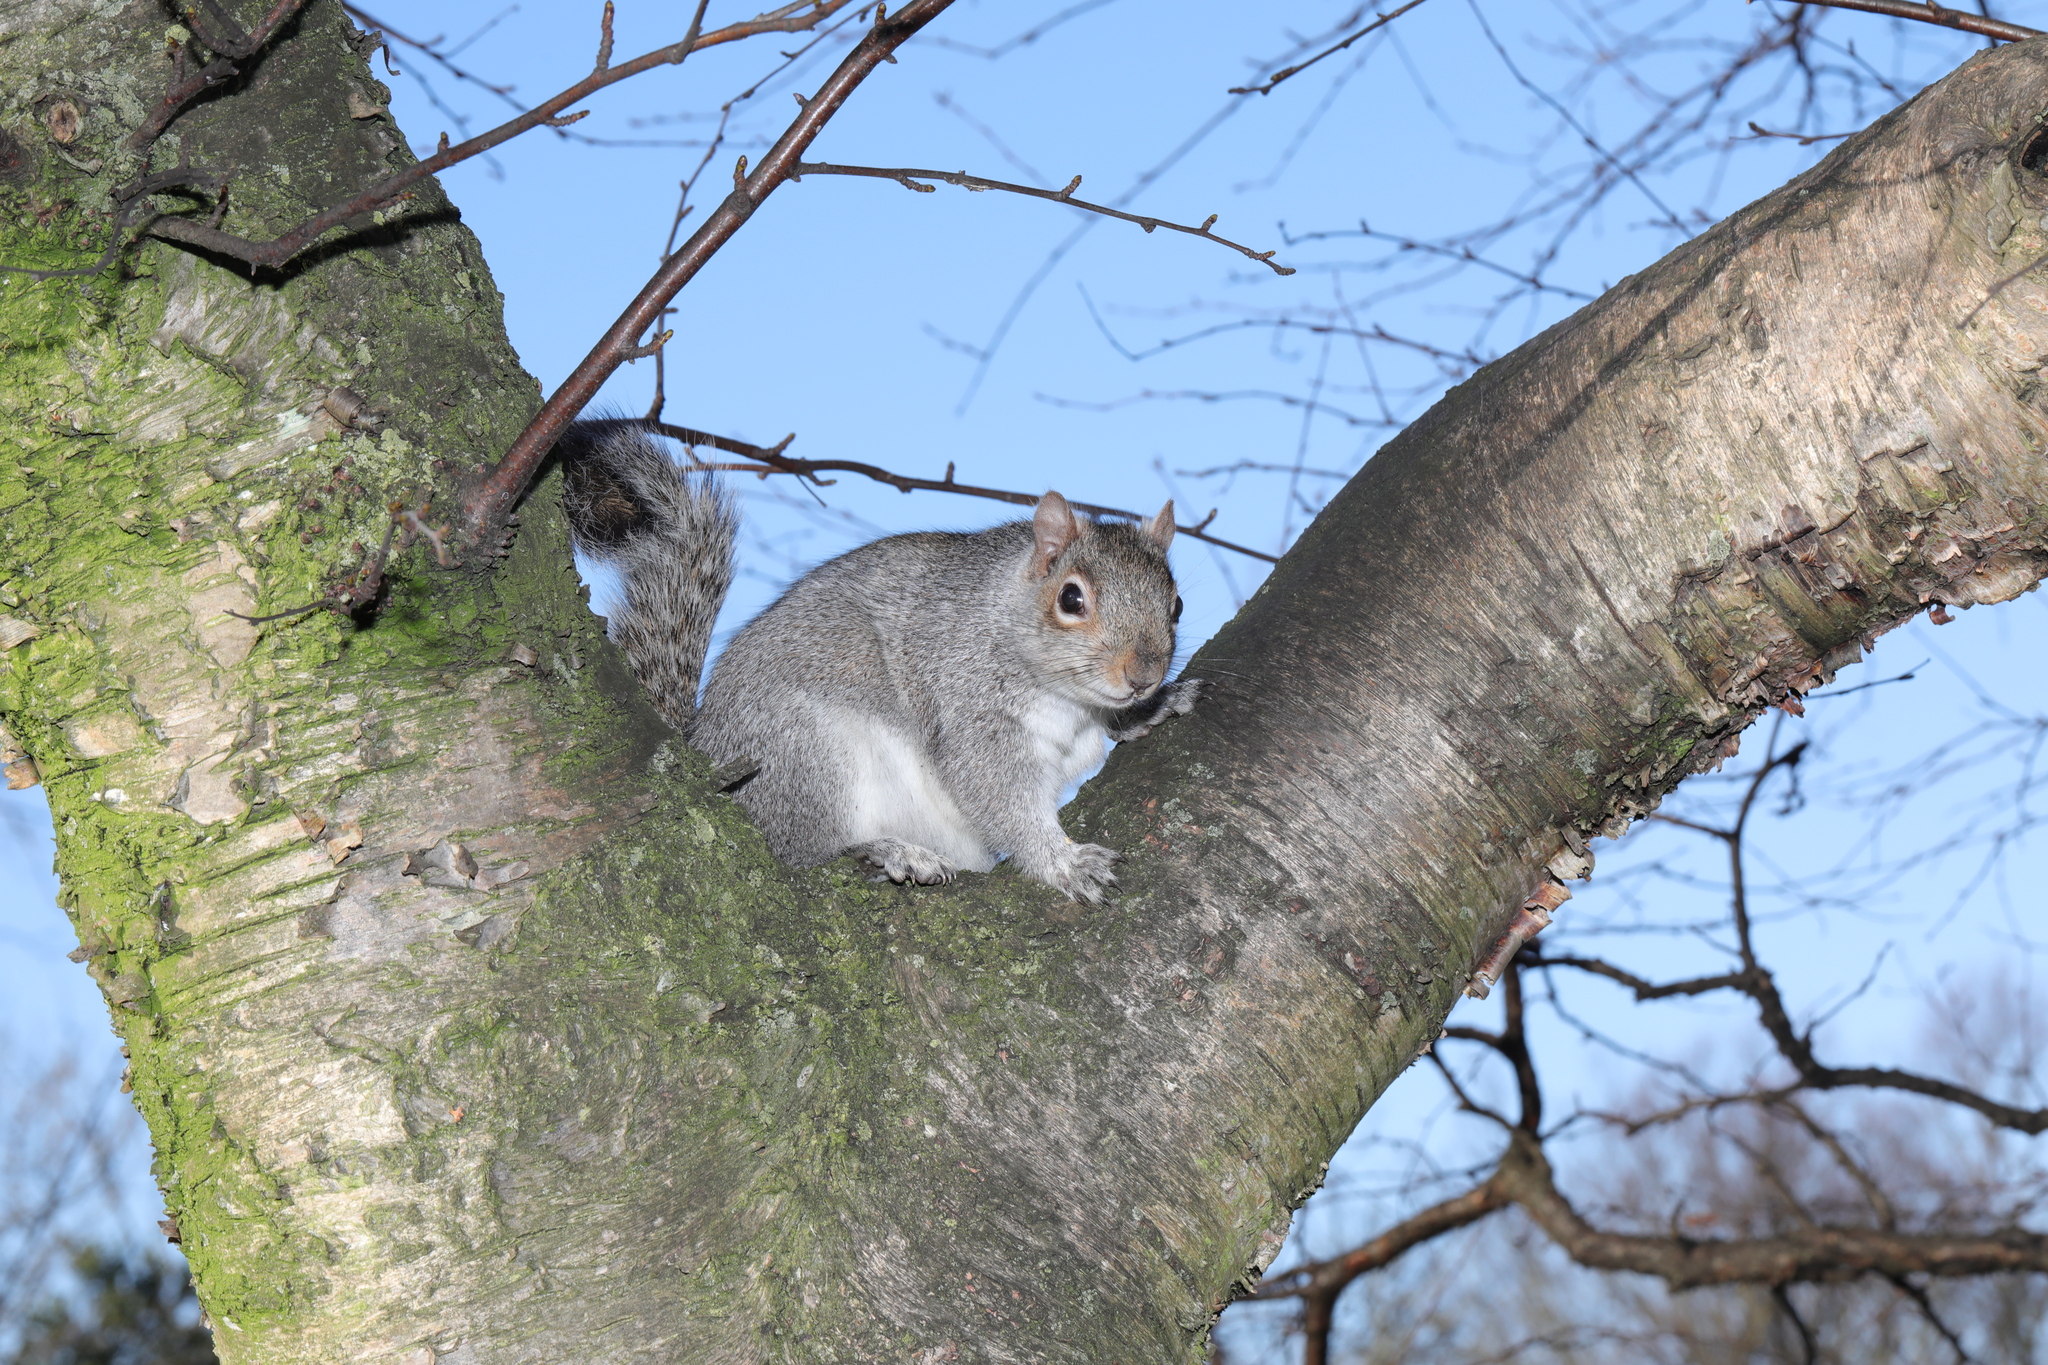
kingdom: Animalia
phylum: Chordata
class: Mammalia
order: Rodentia
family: Sciuridae
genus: Sciurus
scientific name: Sciurus carolinensis
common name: Eastern gray squirrel
